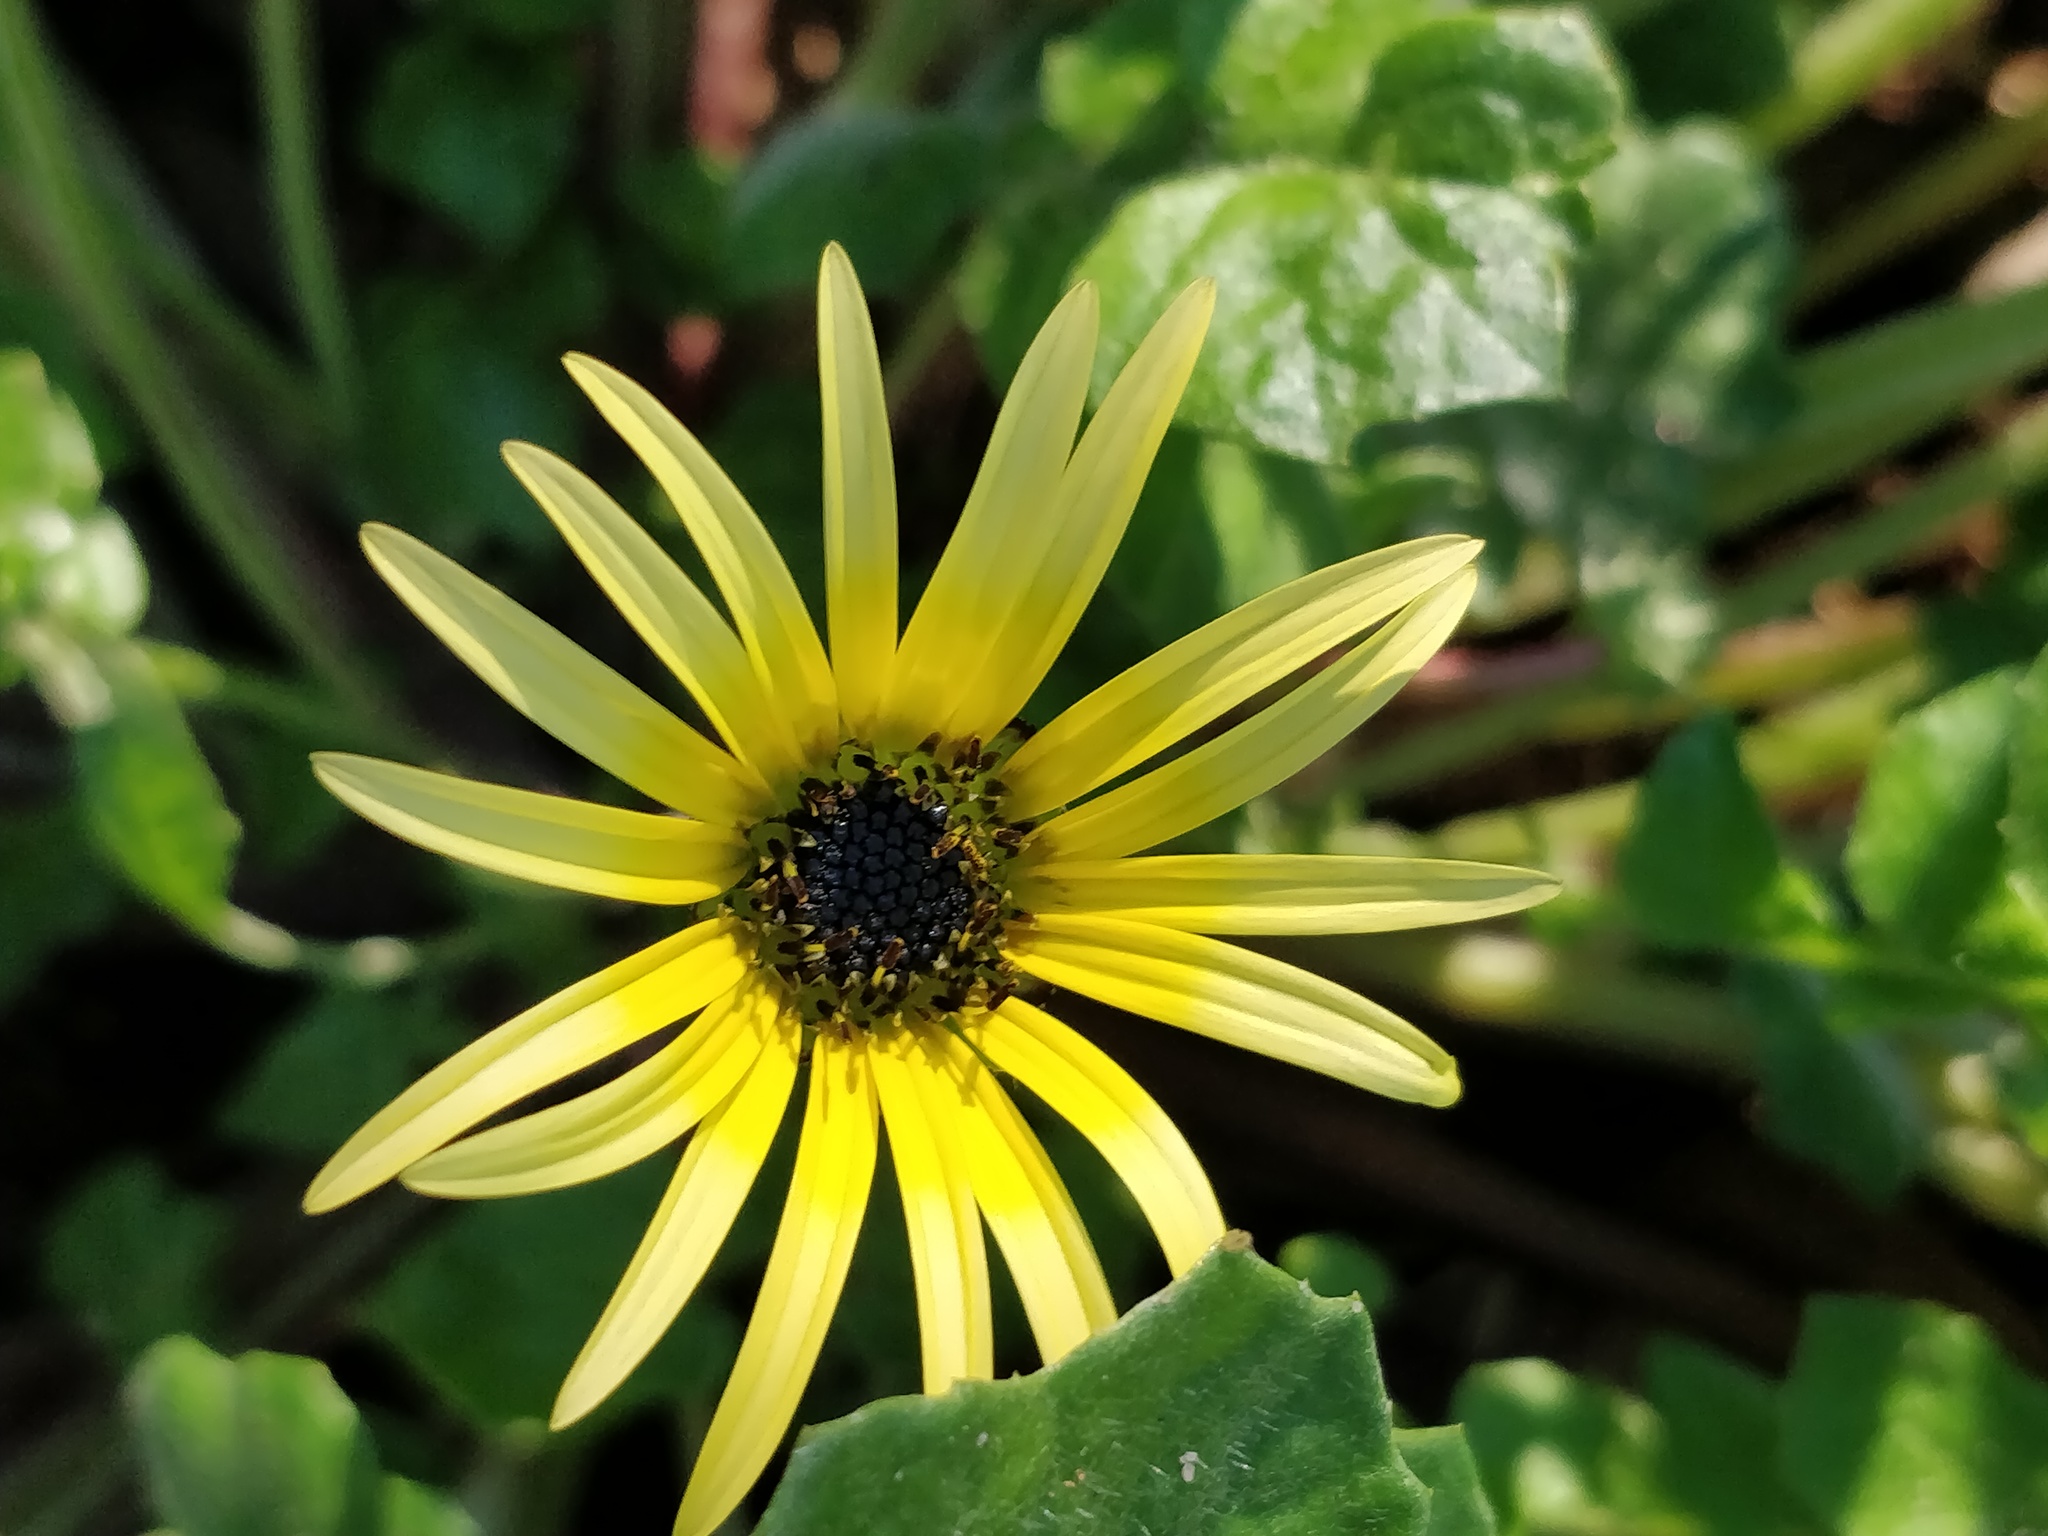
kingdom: Plantae
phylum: Tracheophyta
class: Magnoliopsida
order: Asterales
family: Asteraceae
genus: Arctotheca
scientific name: Arctotheca calendula
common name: Capeweed
